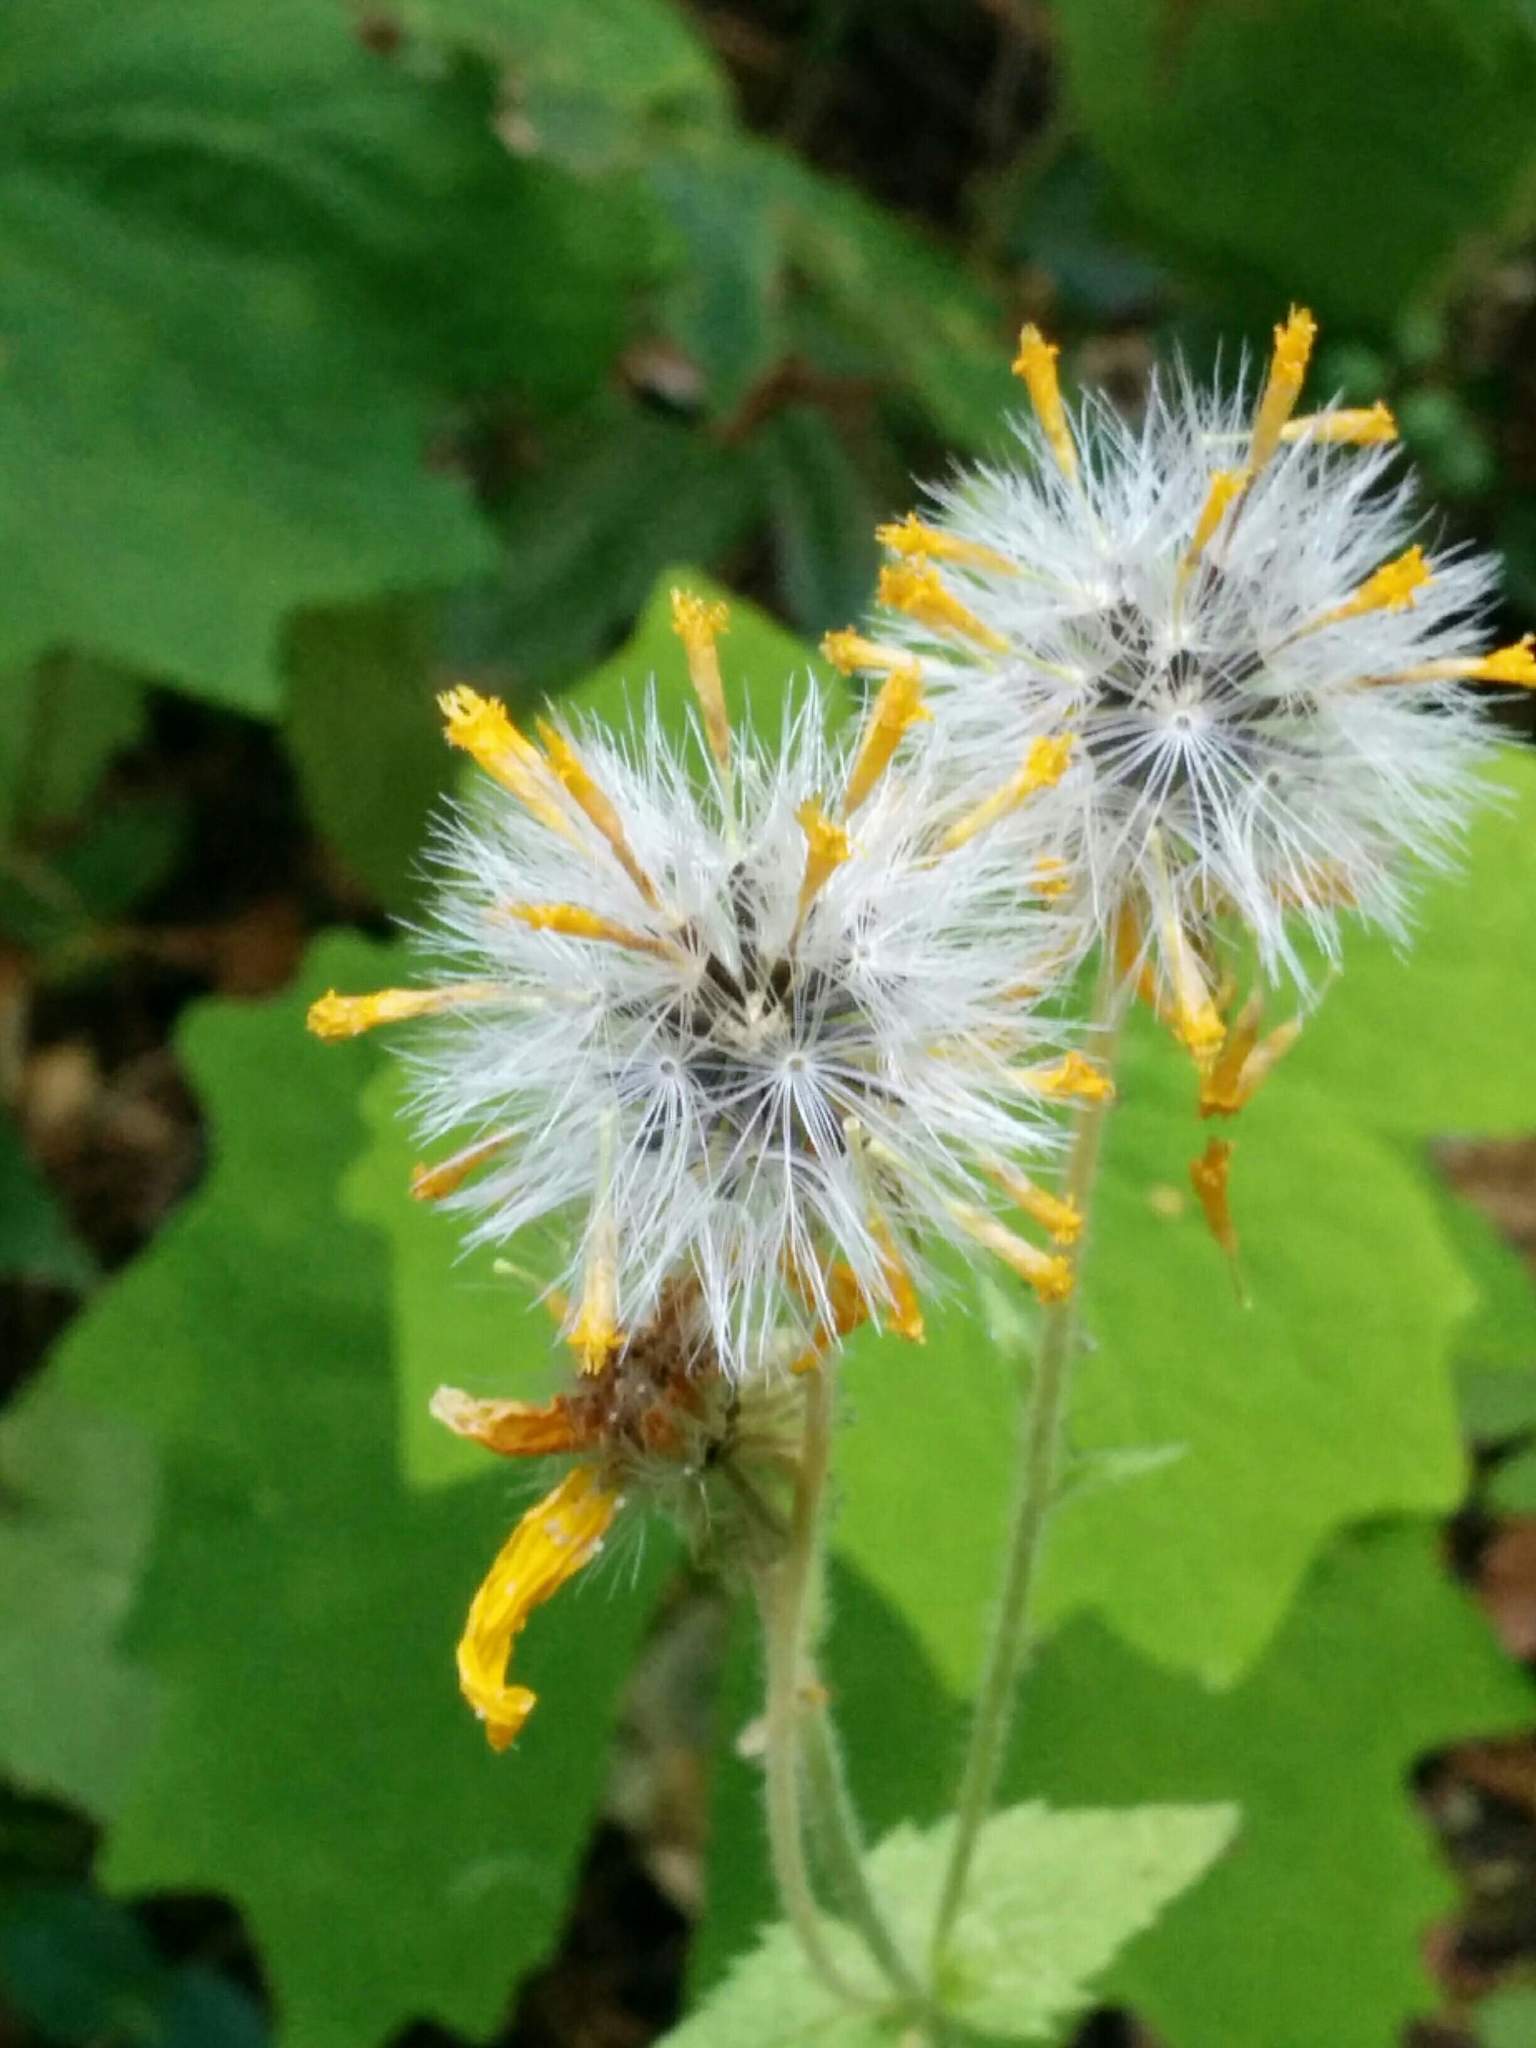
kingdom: Plantae
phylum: Tracheophyta
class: Magnoliopsida
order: Asterales
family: Asteraceae
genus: Arnica
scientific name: Arnica cordifolia
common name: Heart-leaf arnica
